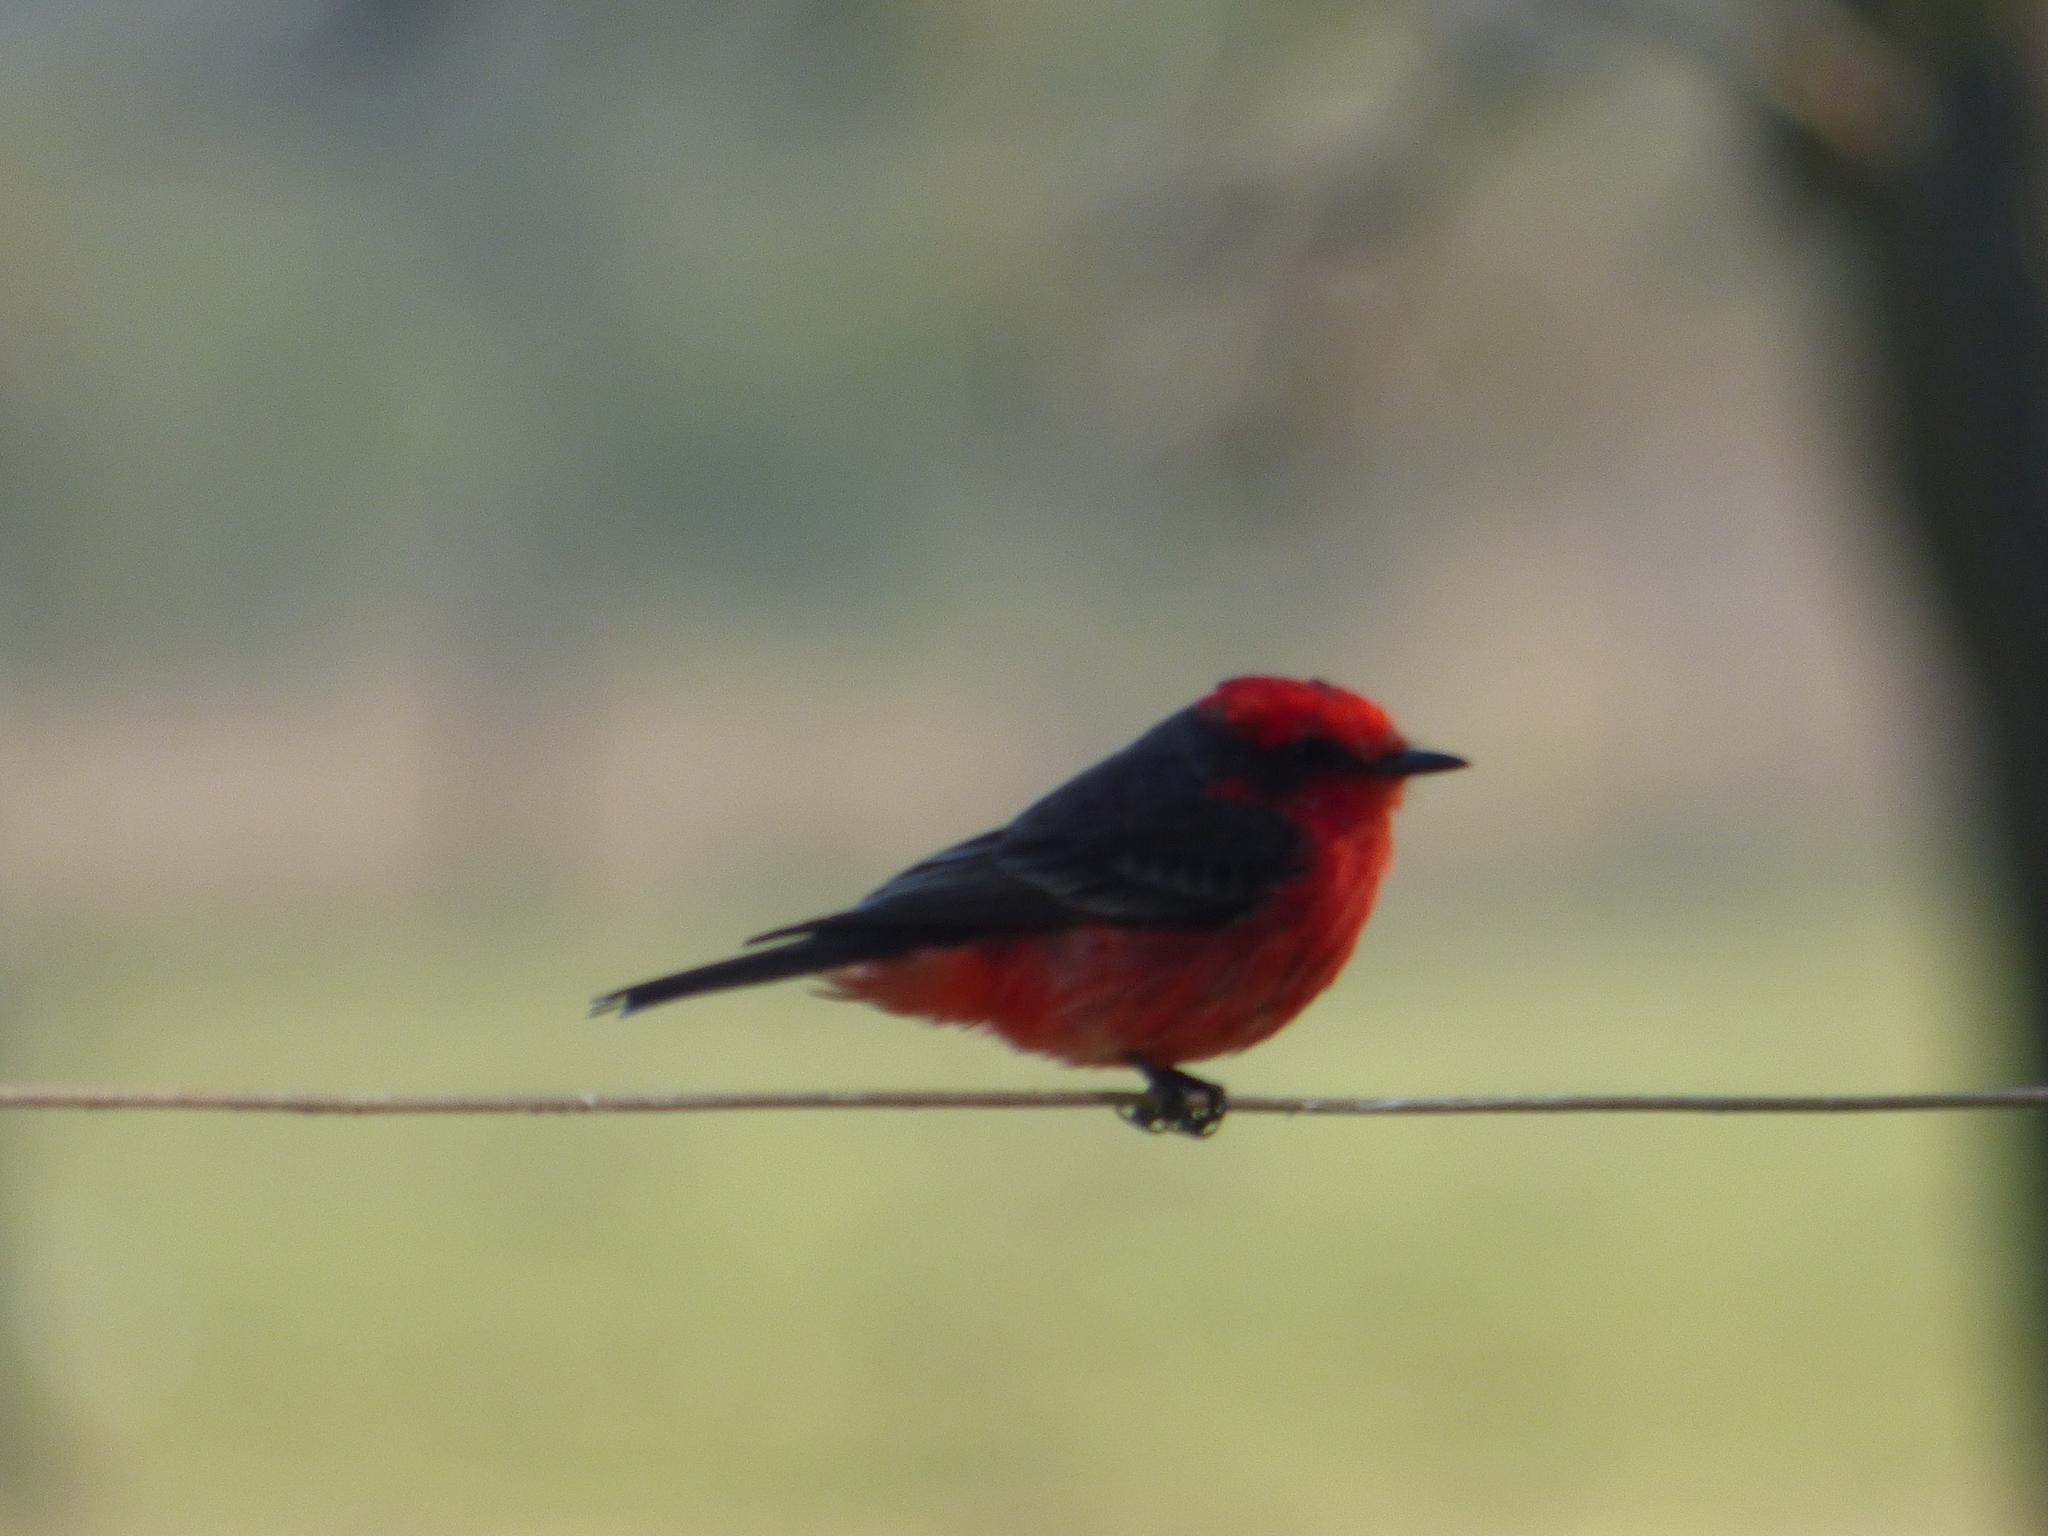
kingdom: Animalia
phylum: Chordata
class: Aves
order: Passeriformes
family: Tyrannidae
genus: Pyrocephalus
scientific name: Pyrocephalus rubinus
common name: Vermilion flycatcher
